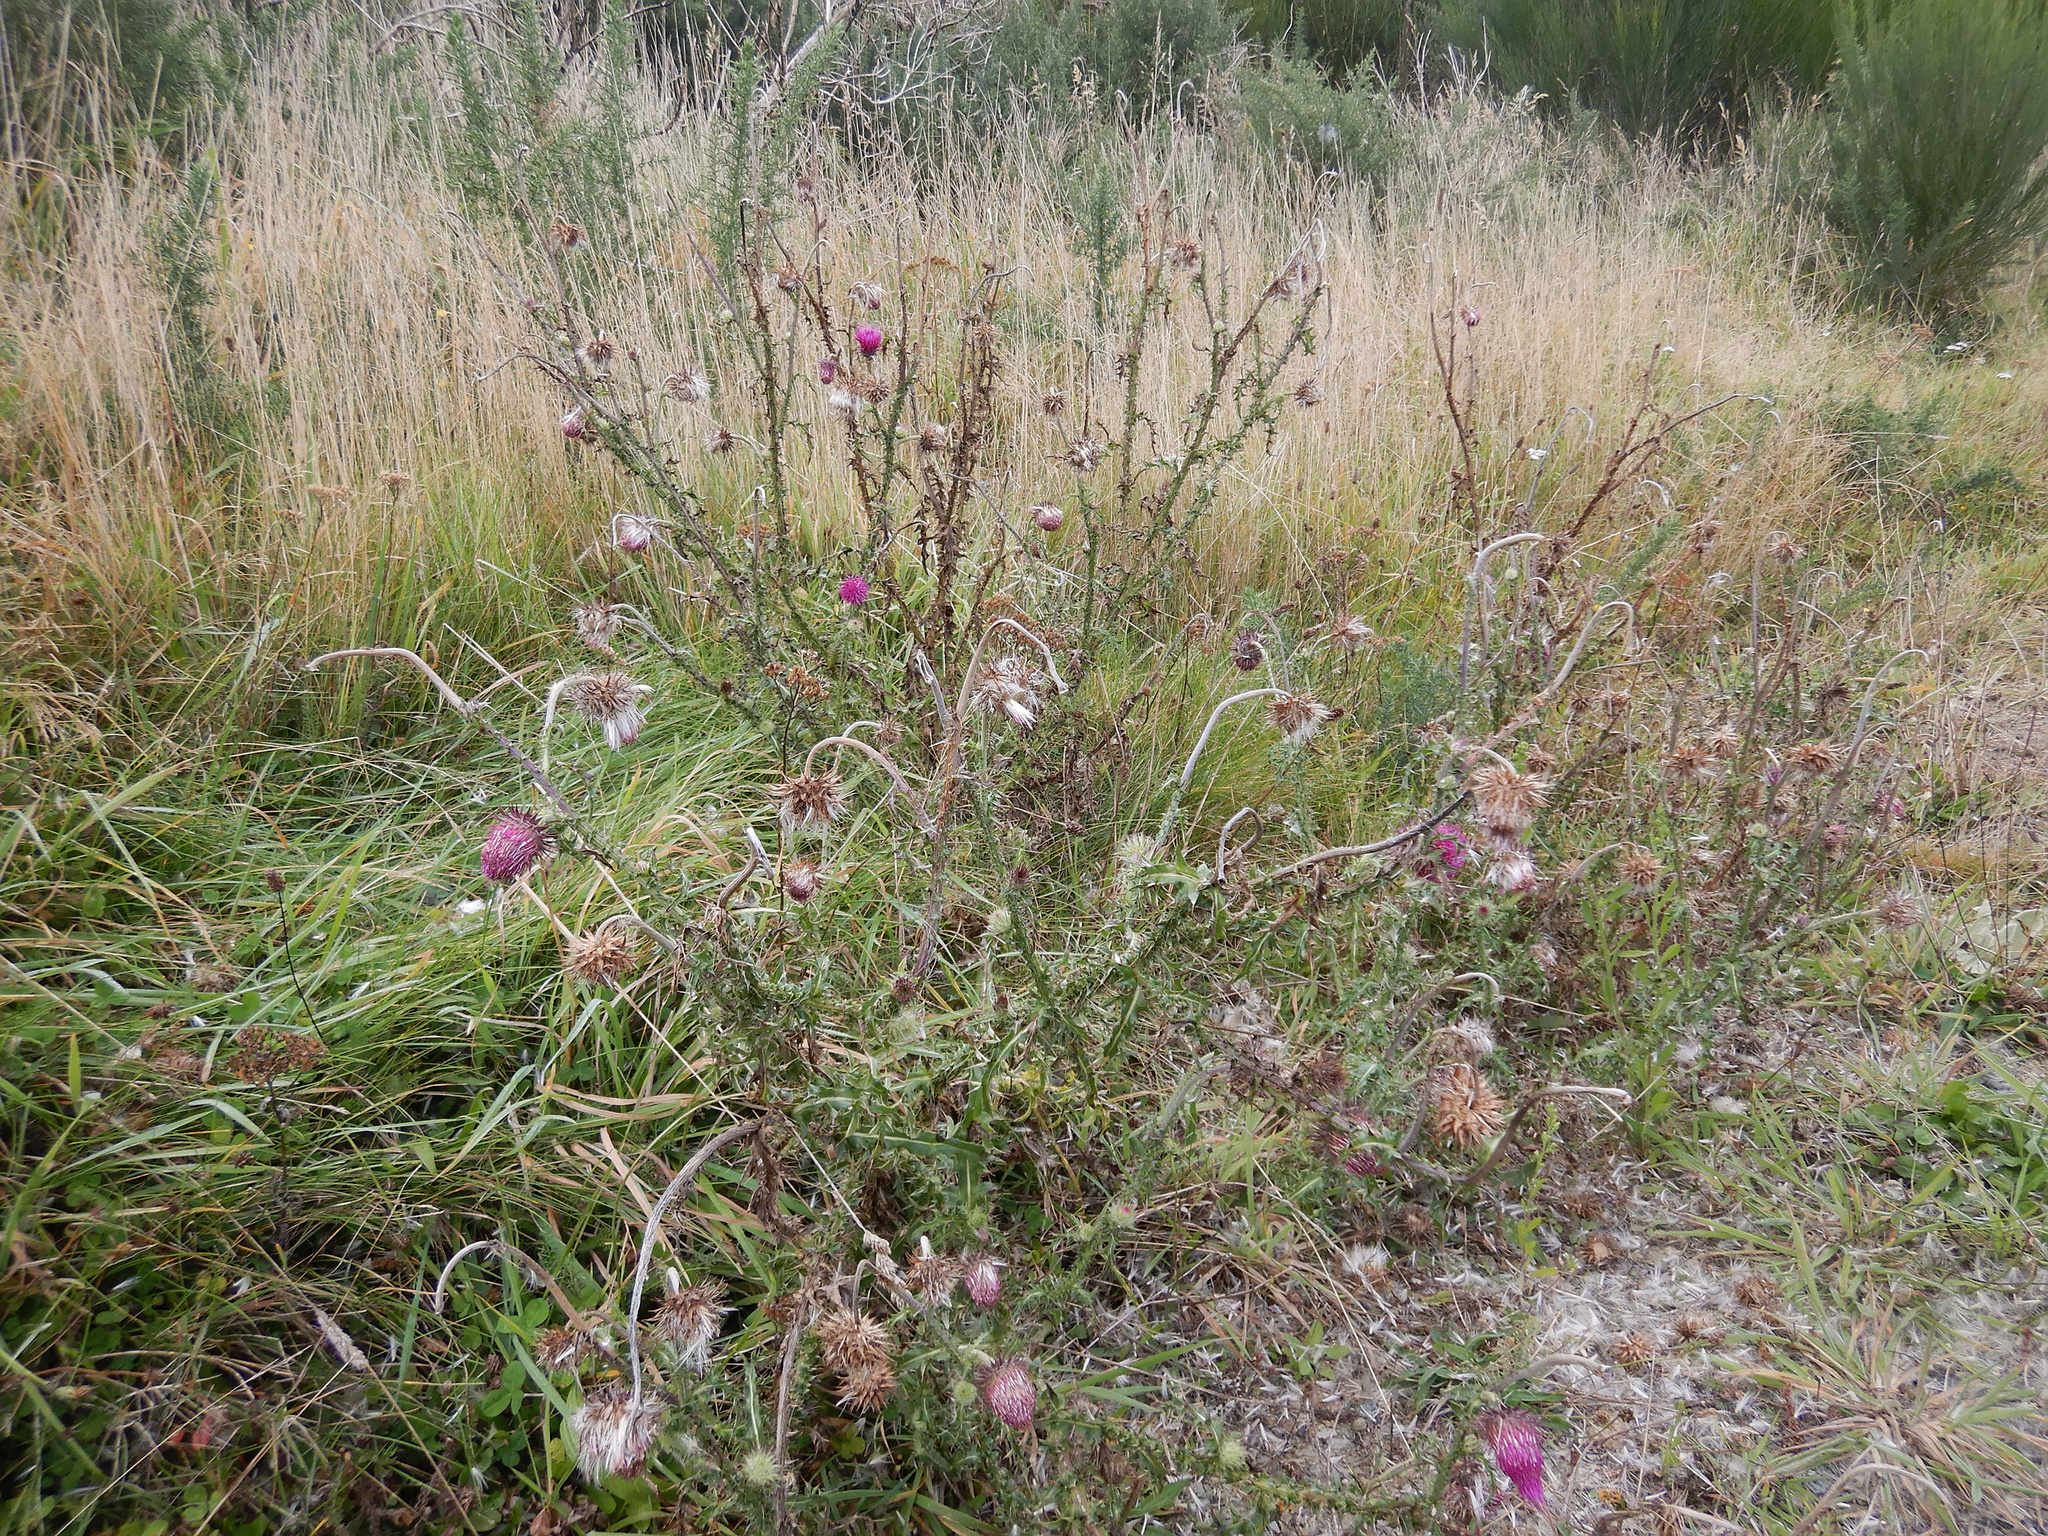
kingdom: Plantae
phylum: Tracheophyta
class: Magnoliopsida
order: Asterales
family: Asteraceae
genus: Carduus
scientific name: Carduus nutans
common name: Musk thistle
